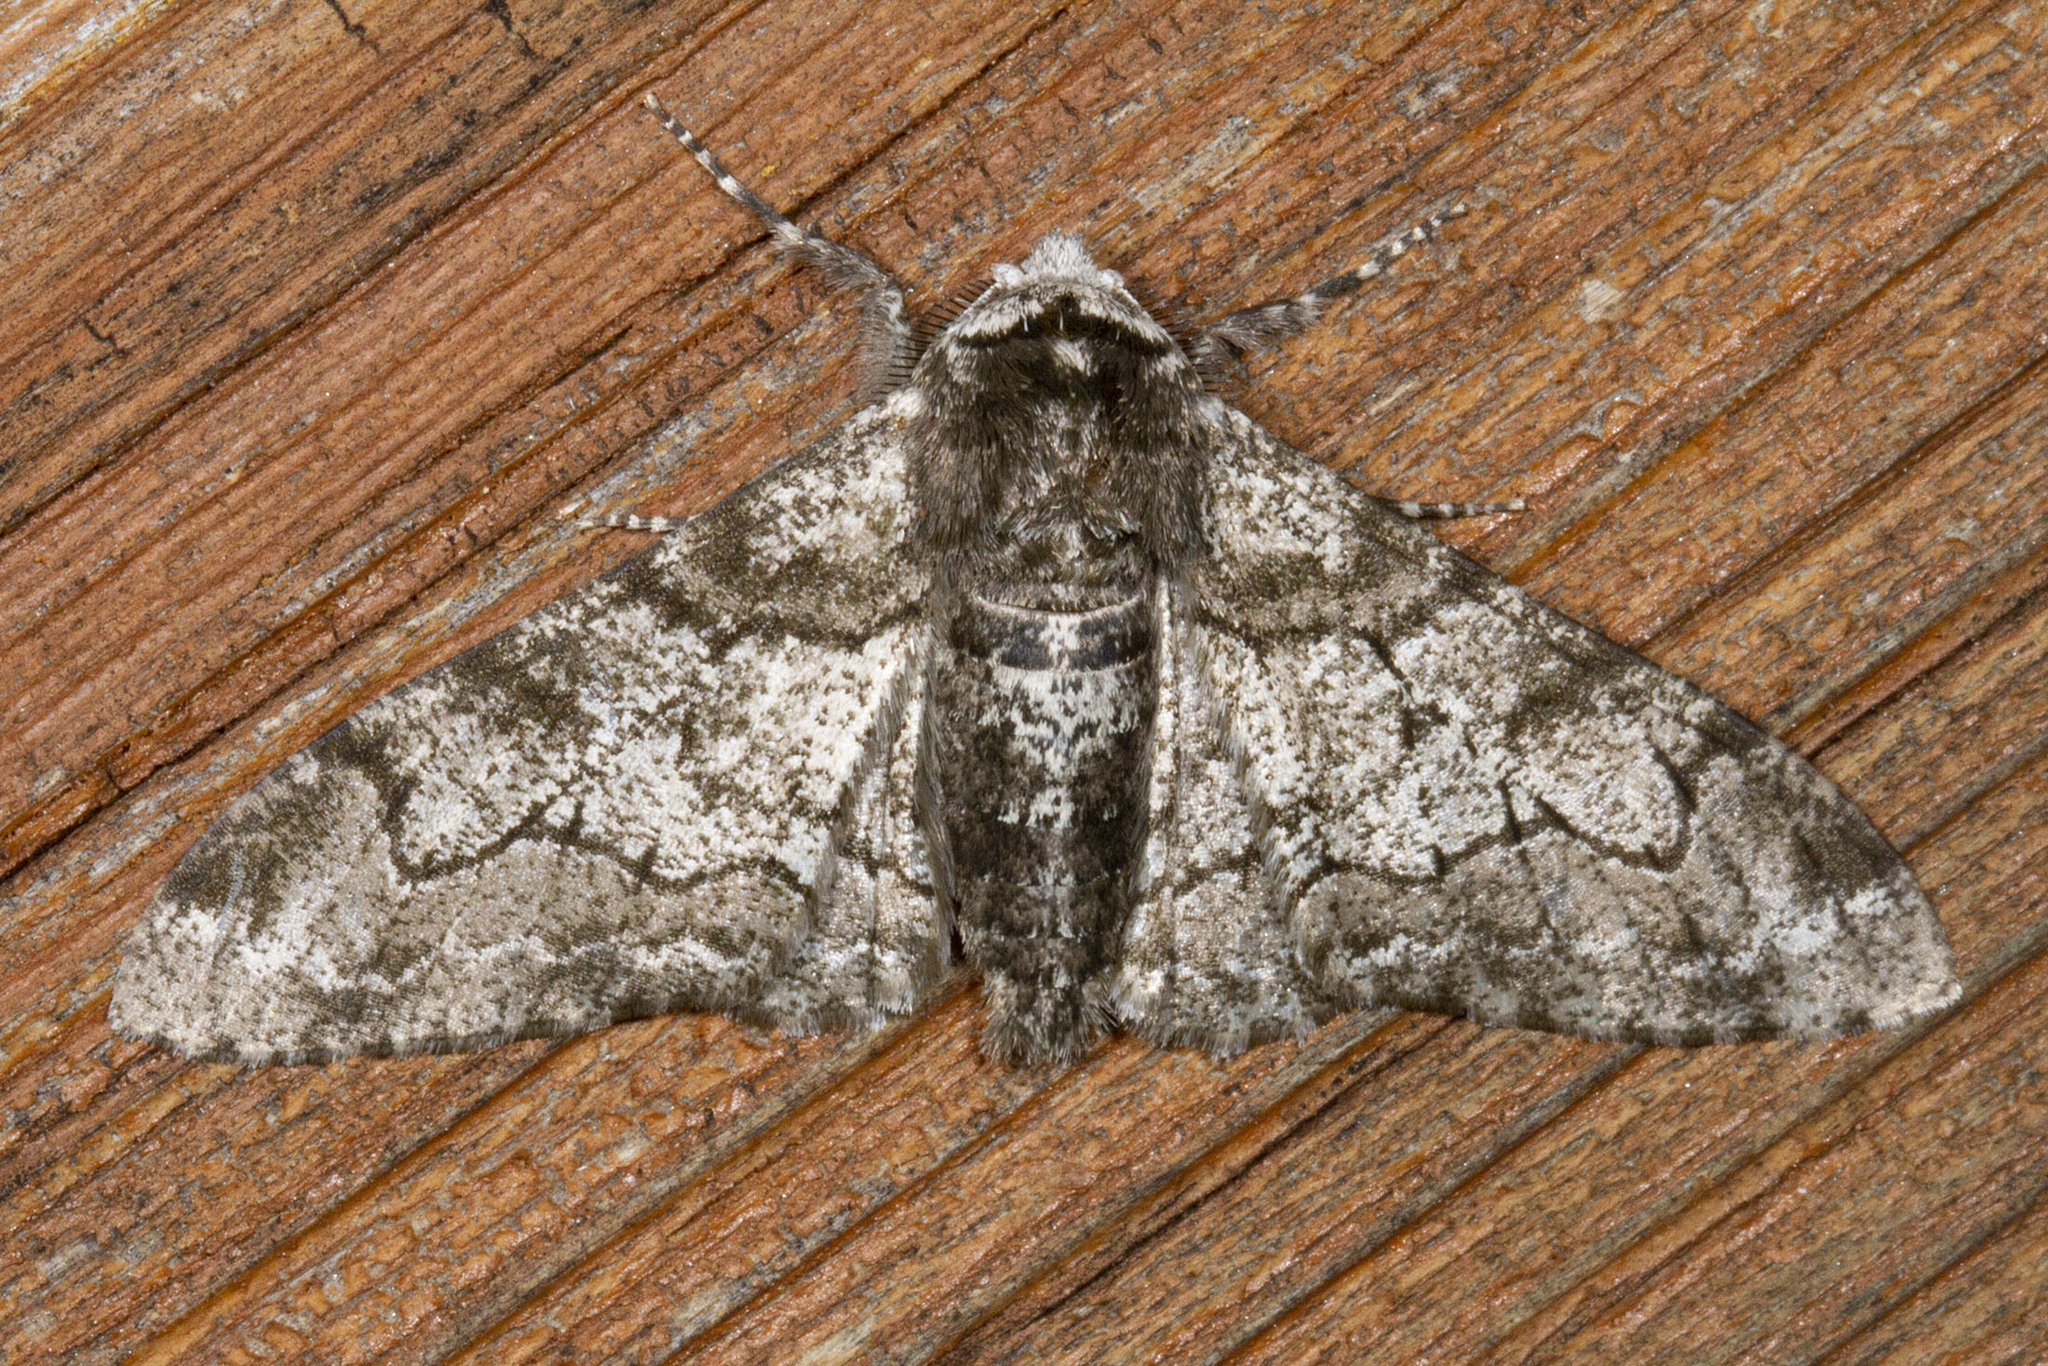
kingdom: Animalia
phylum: Arthropoda
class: Insecta
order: Lepidoptera
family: Geometridae
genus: Biston
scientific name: Biston betularia
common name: Peppered moth
